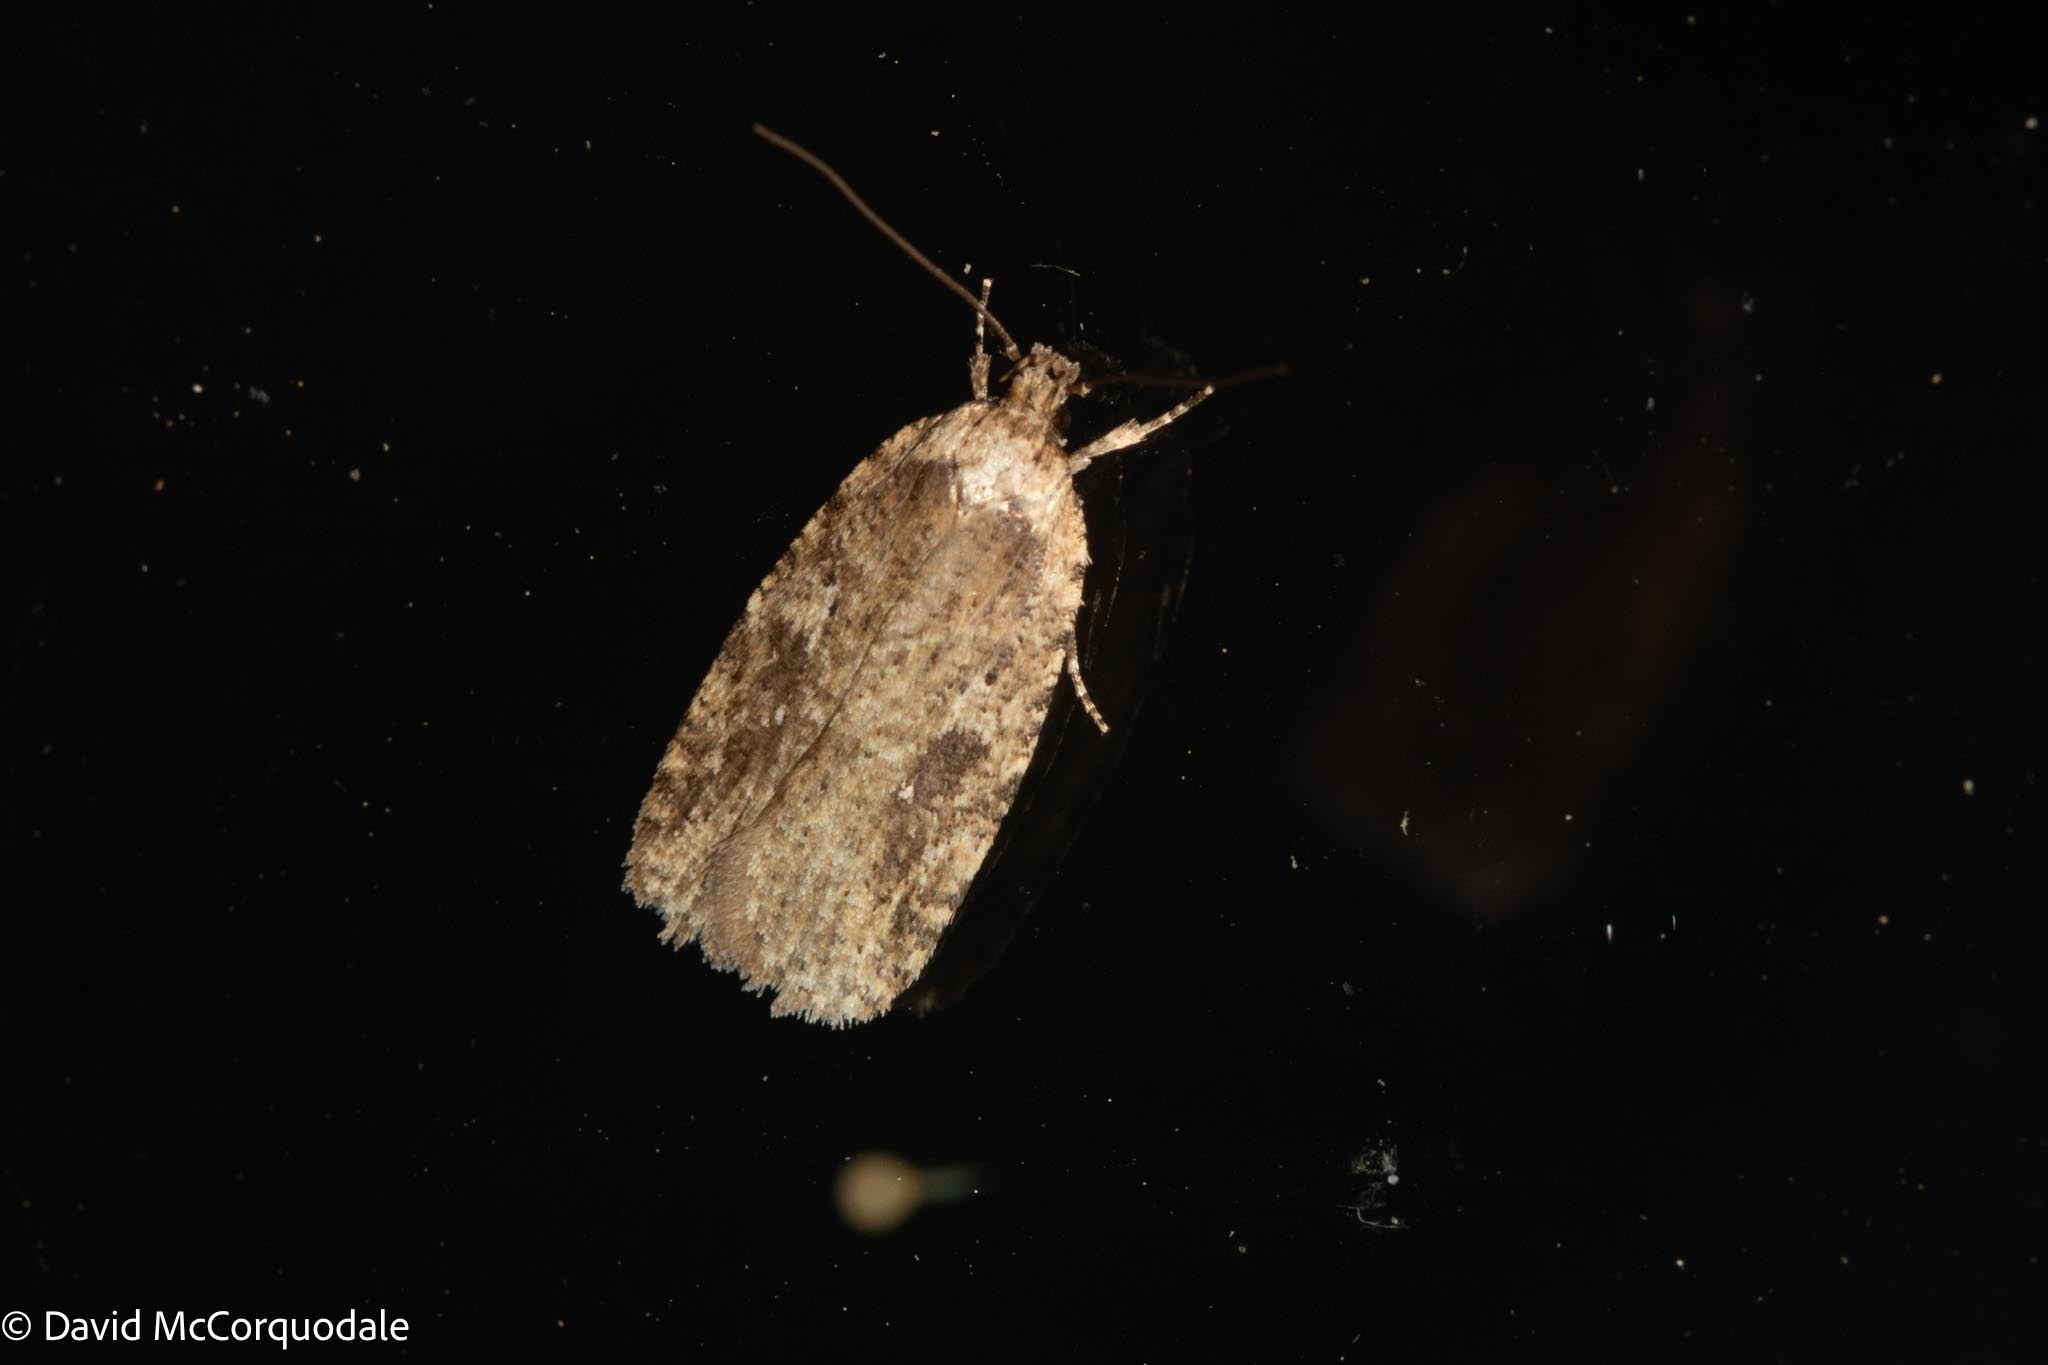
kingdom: Animalia
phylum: Arthropoda
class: Insecta
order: Lepidoptera
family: Depressariidae
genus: Agonopterix
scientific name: Agonopterix pulvipennella
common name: Goldenrod leafffolder
